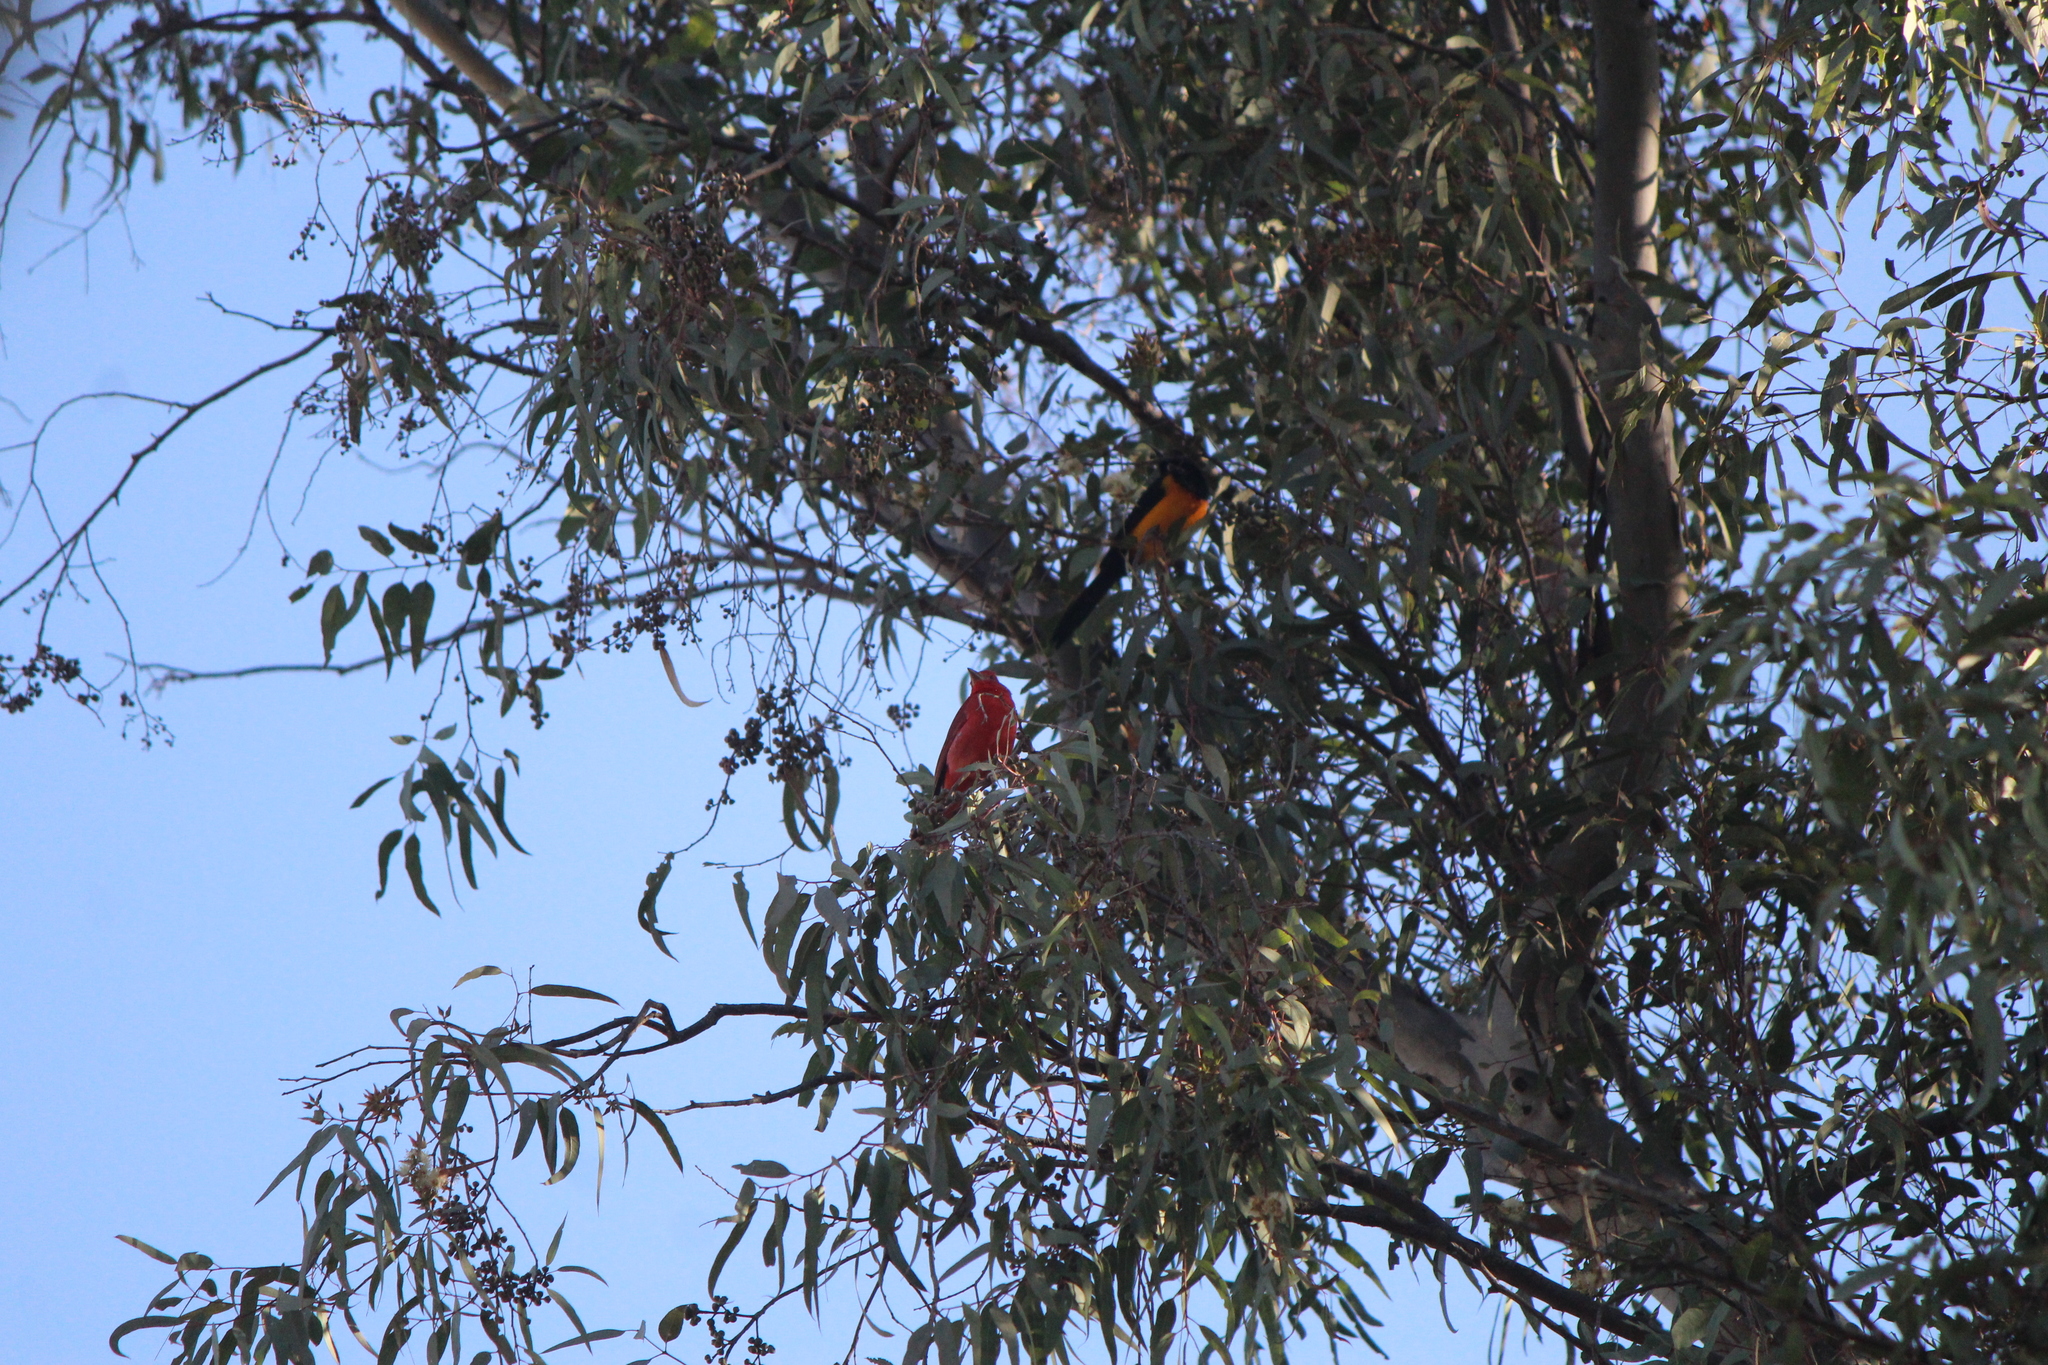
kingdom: Animalia
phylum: Chordata
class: Aves
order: Passeriformes
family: Cardinalidae
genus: Piranga
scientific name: Piranga rubra
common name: Summer tanager
